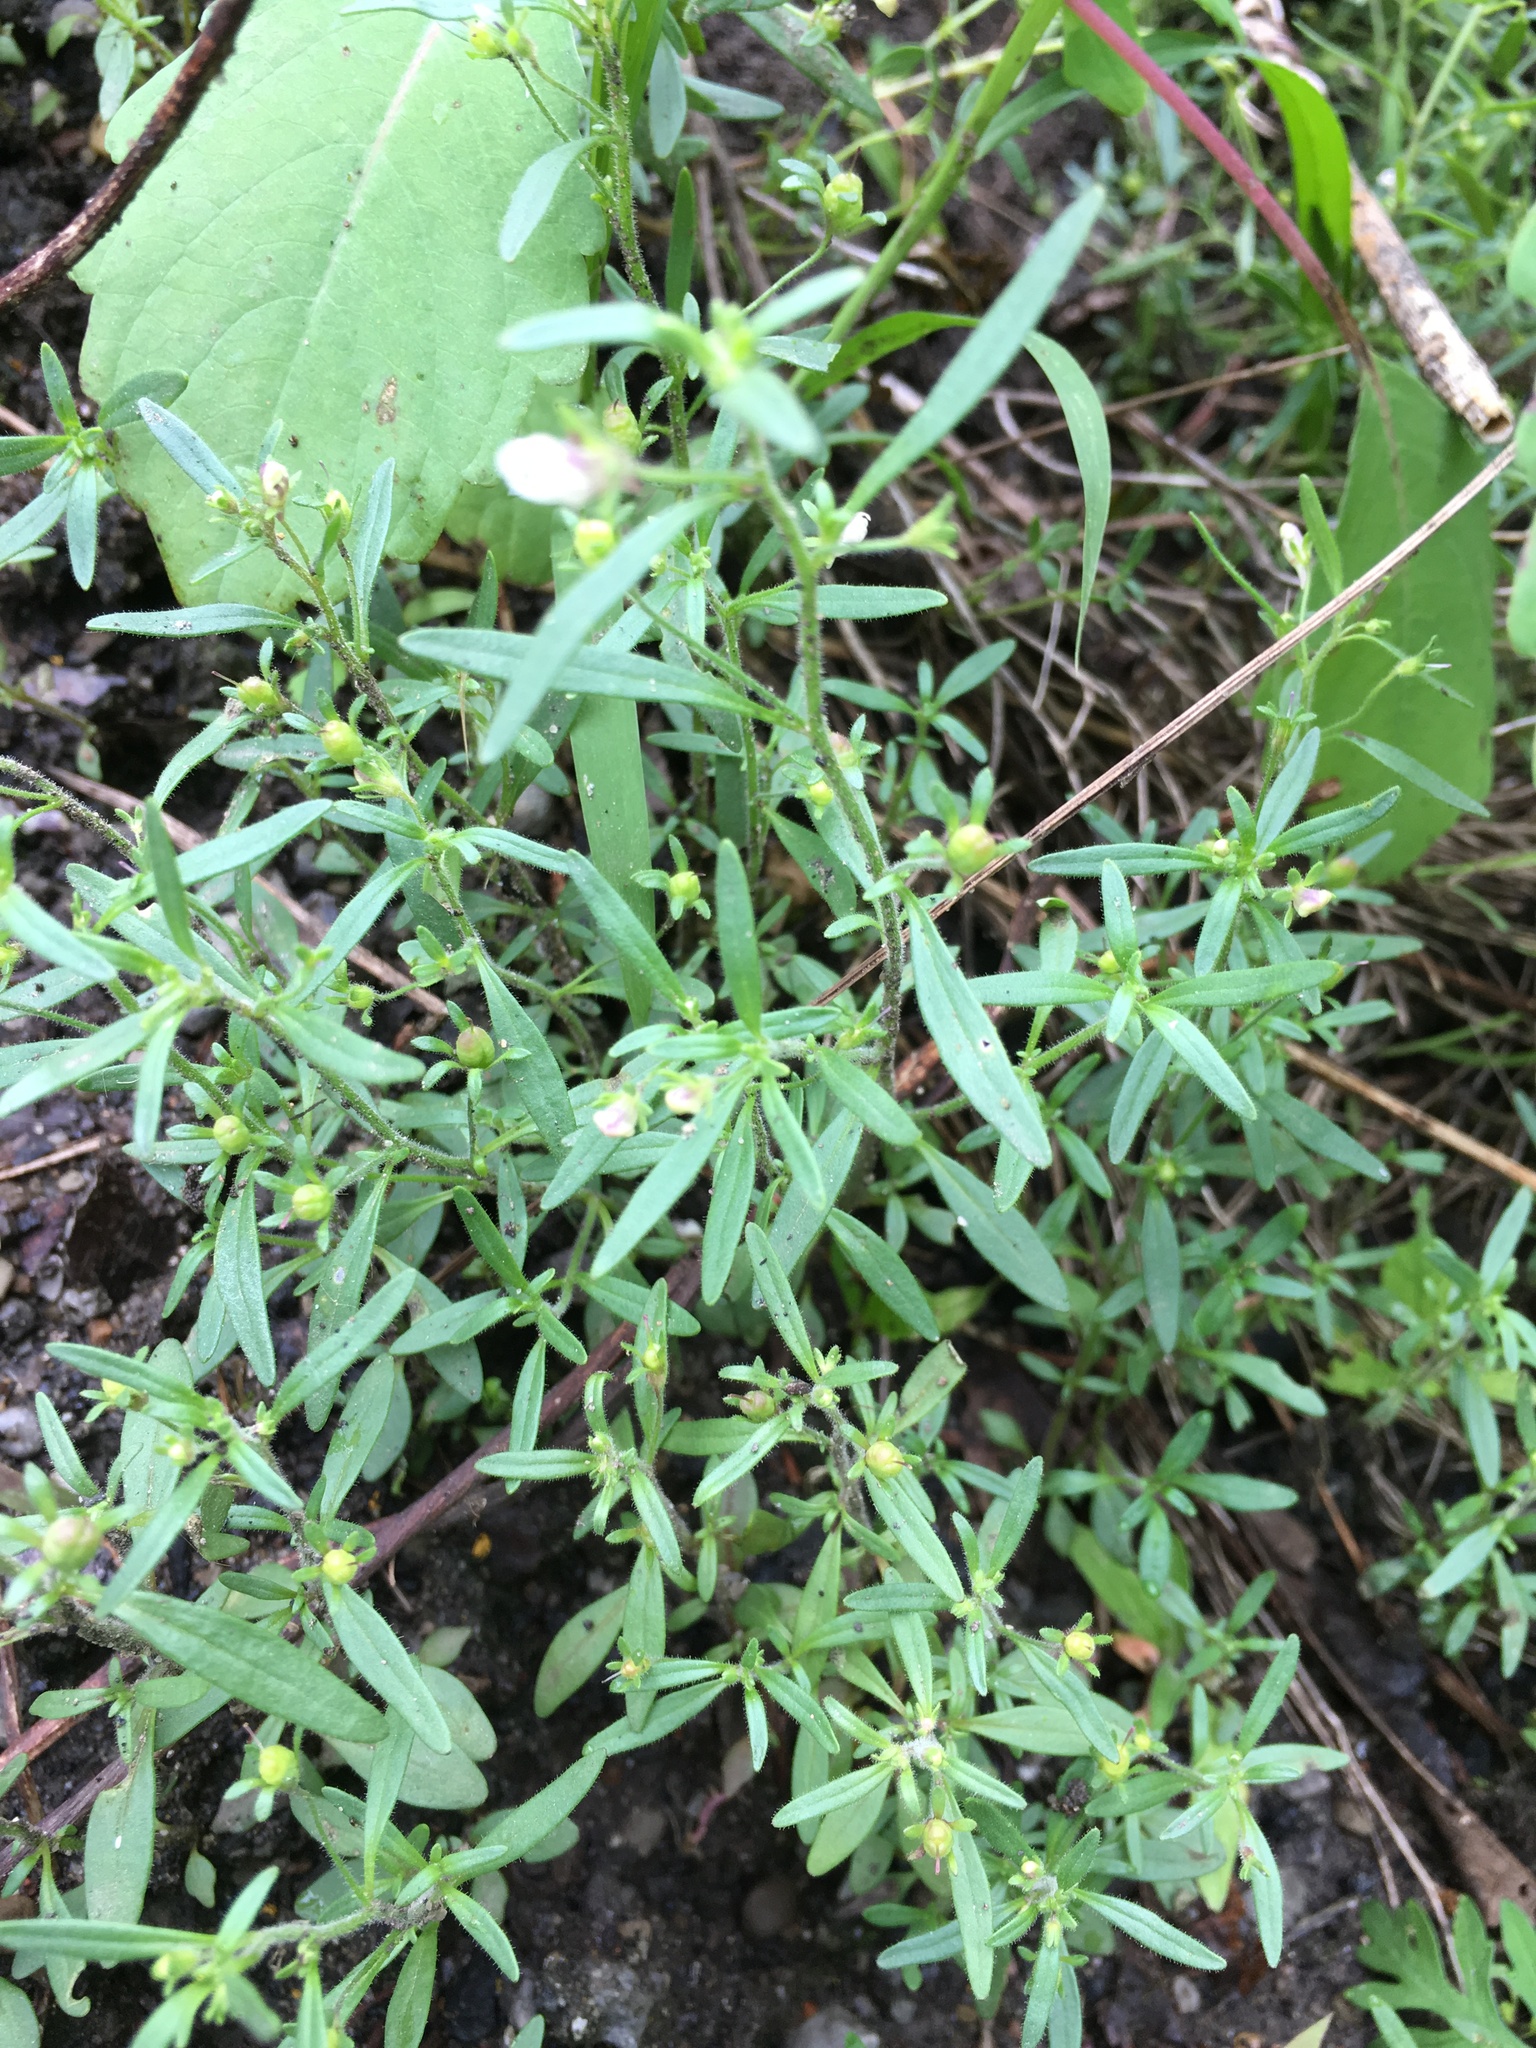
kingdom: Plantae
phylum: Tracheophyta
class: Magnoliopsida
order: Lamiales
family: Plantaginaceae
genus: Chaenorhinum
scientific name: Chaenorhinum minus
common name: Dwarf snapdragon
